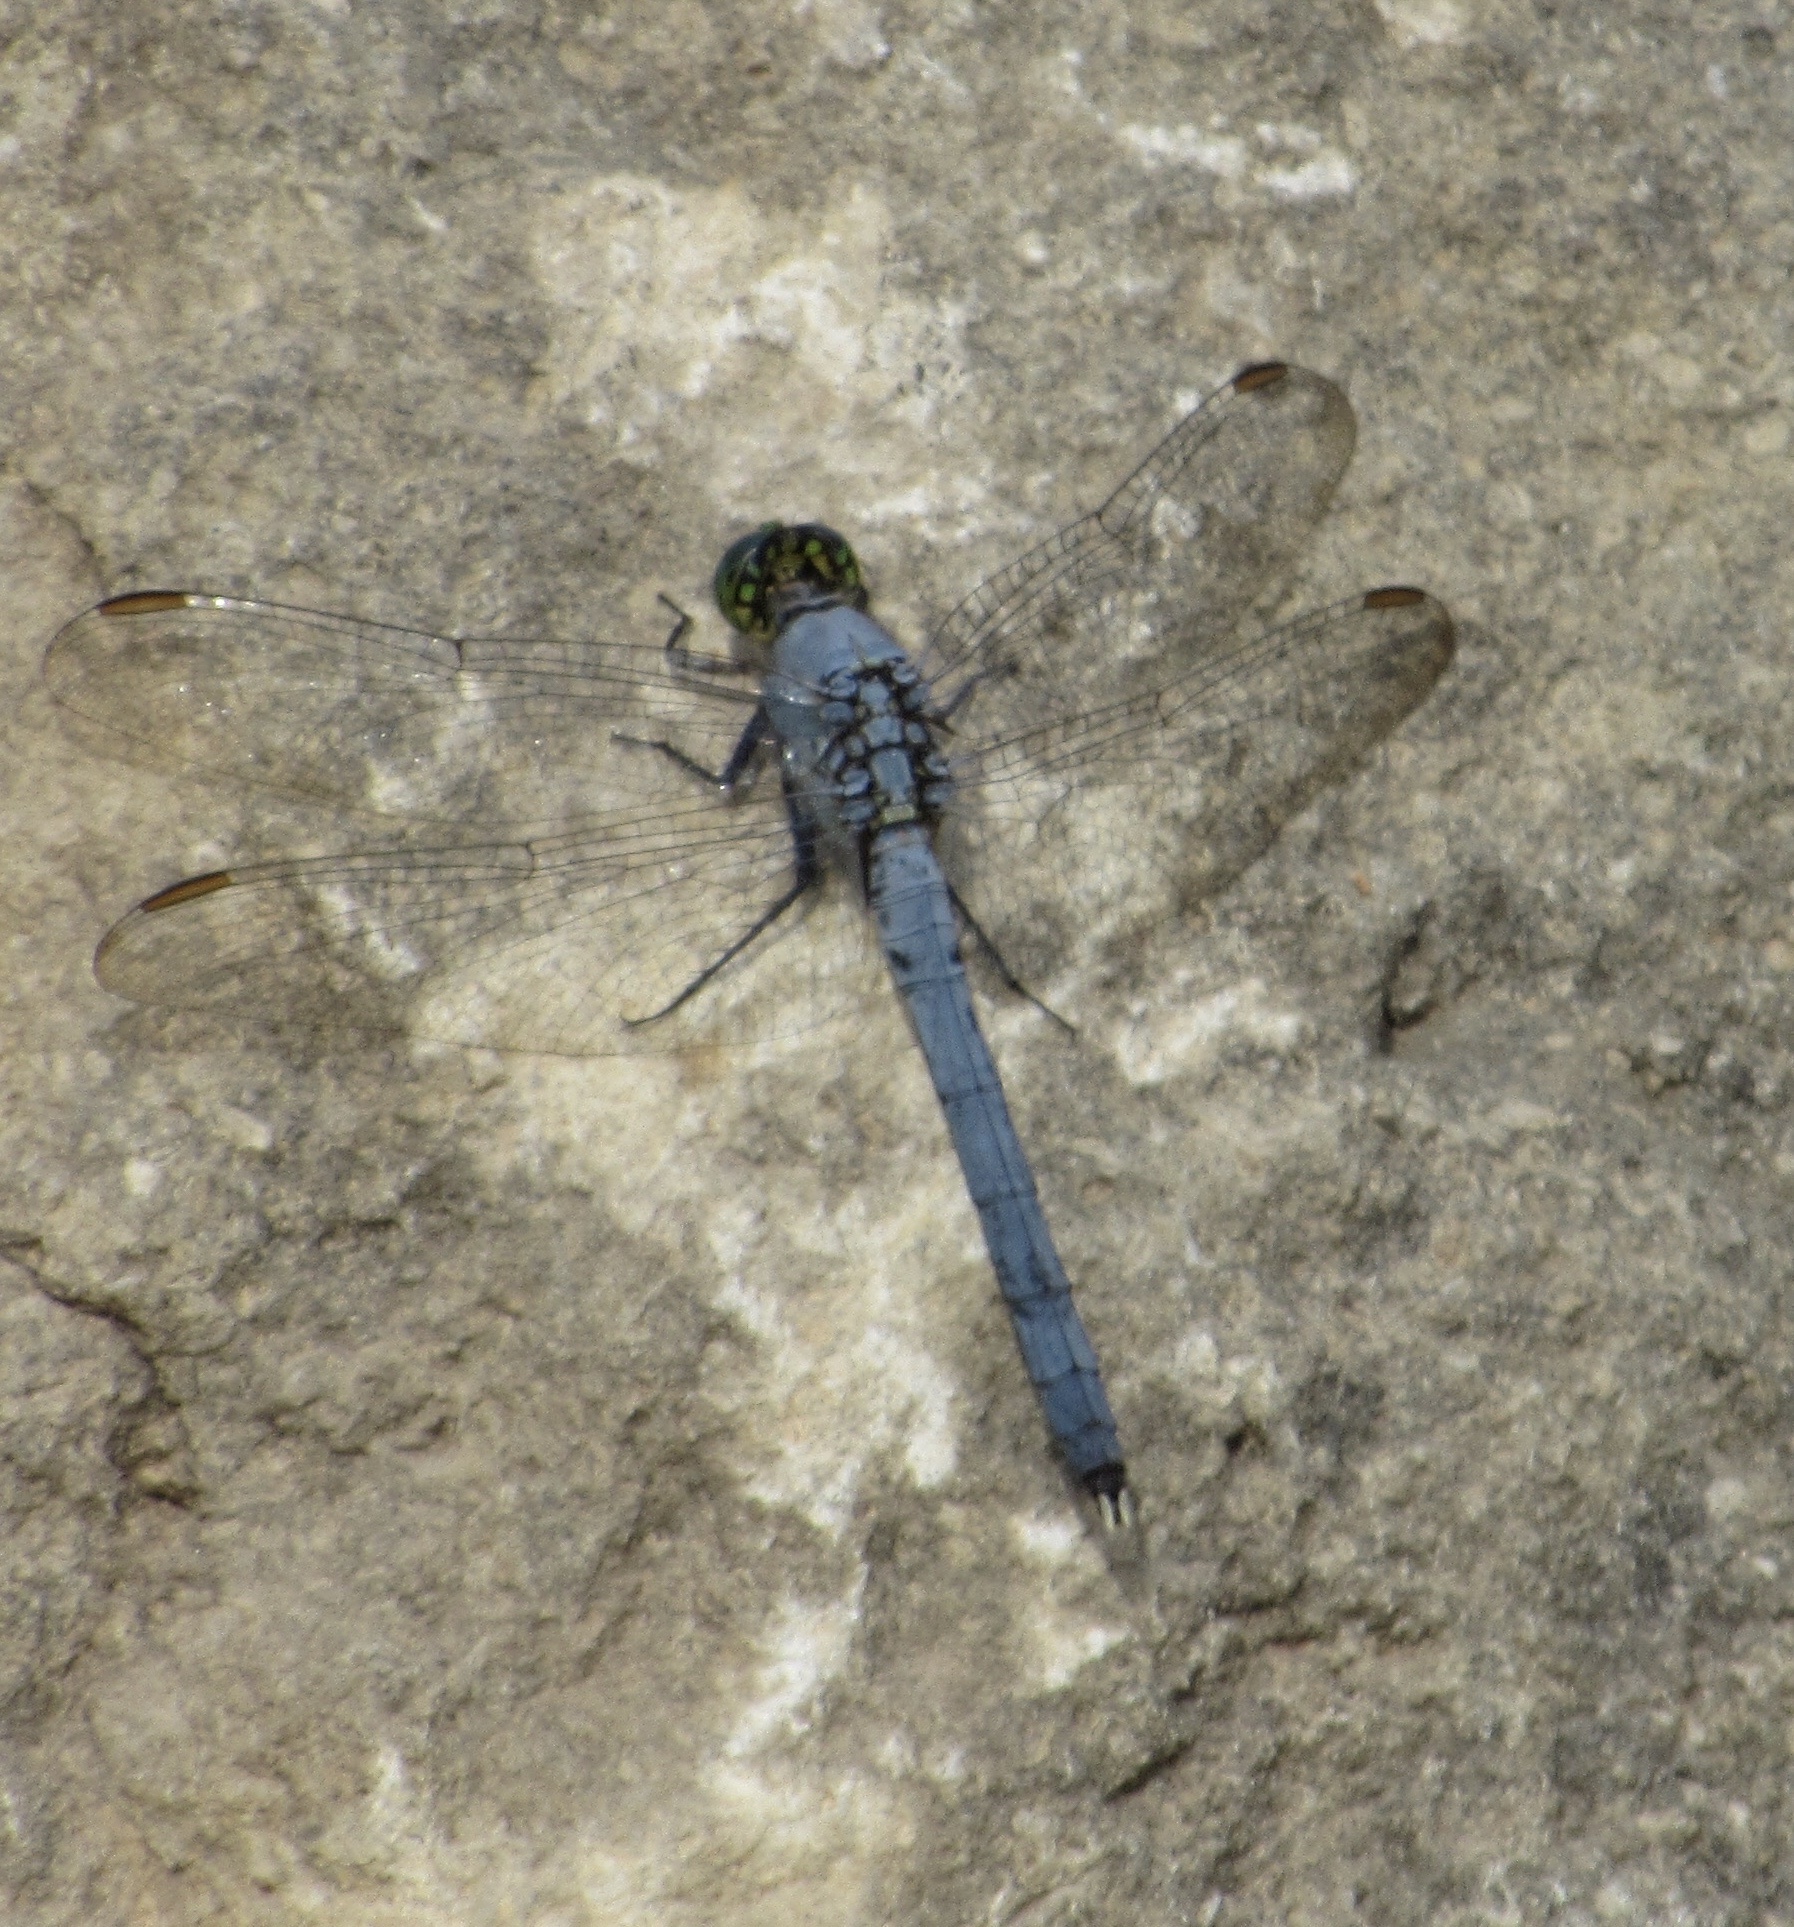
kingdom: Animalia
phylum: Arthropoda
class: Insecta
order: Odonata
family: Libellulidae
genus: Erythemis
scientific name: Erythemis simplicicollis
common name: Eastern pondhawk
